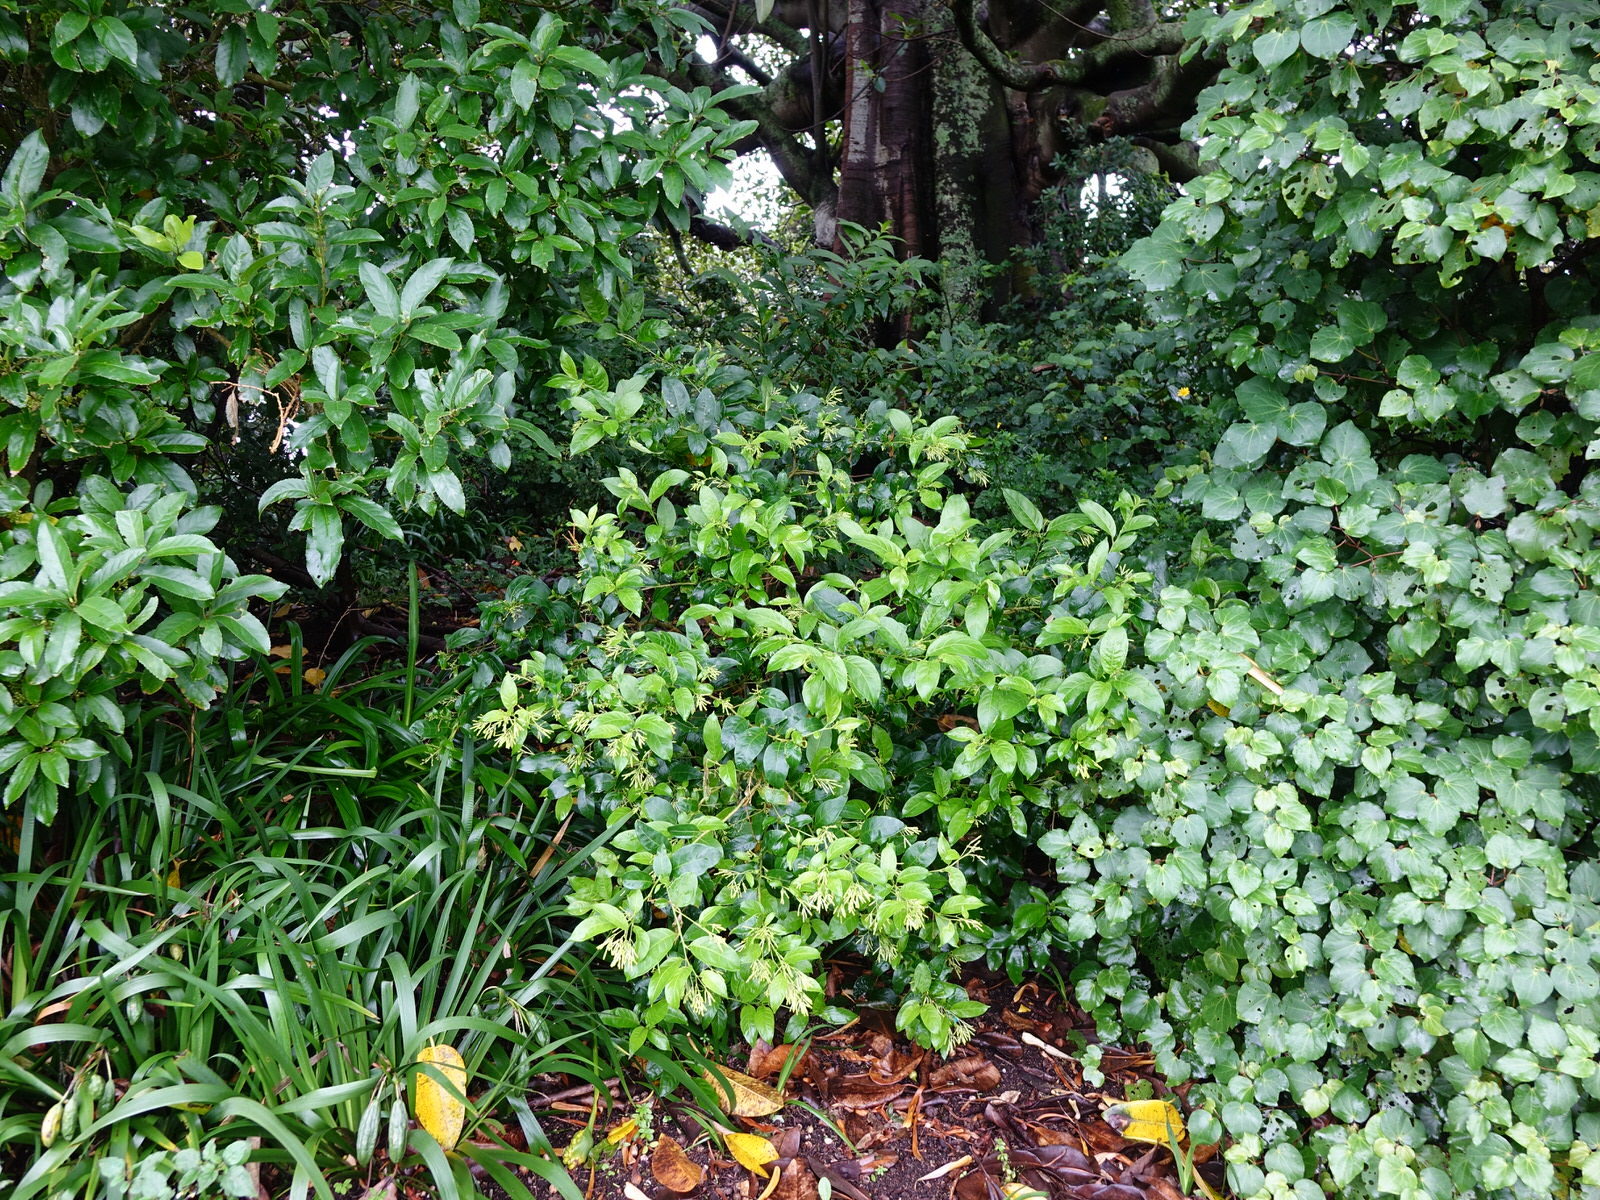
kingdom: Plantae
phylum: Tracheophyta
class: Magnoliopsida
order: Solanales
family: Solanaceae
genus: Cestrum
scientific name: Cestrum nocturnum
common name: Night jessamine
